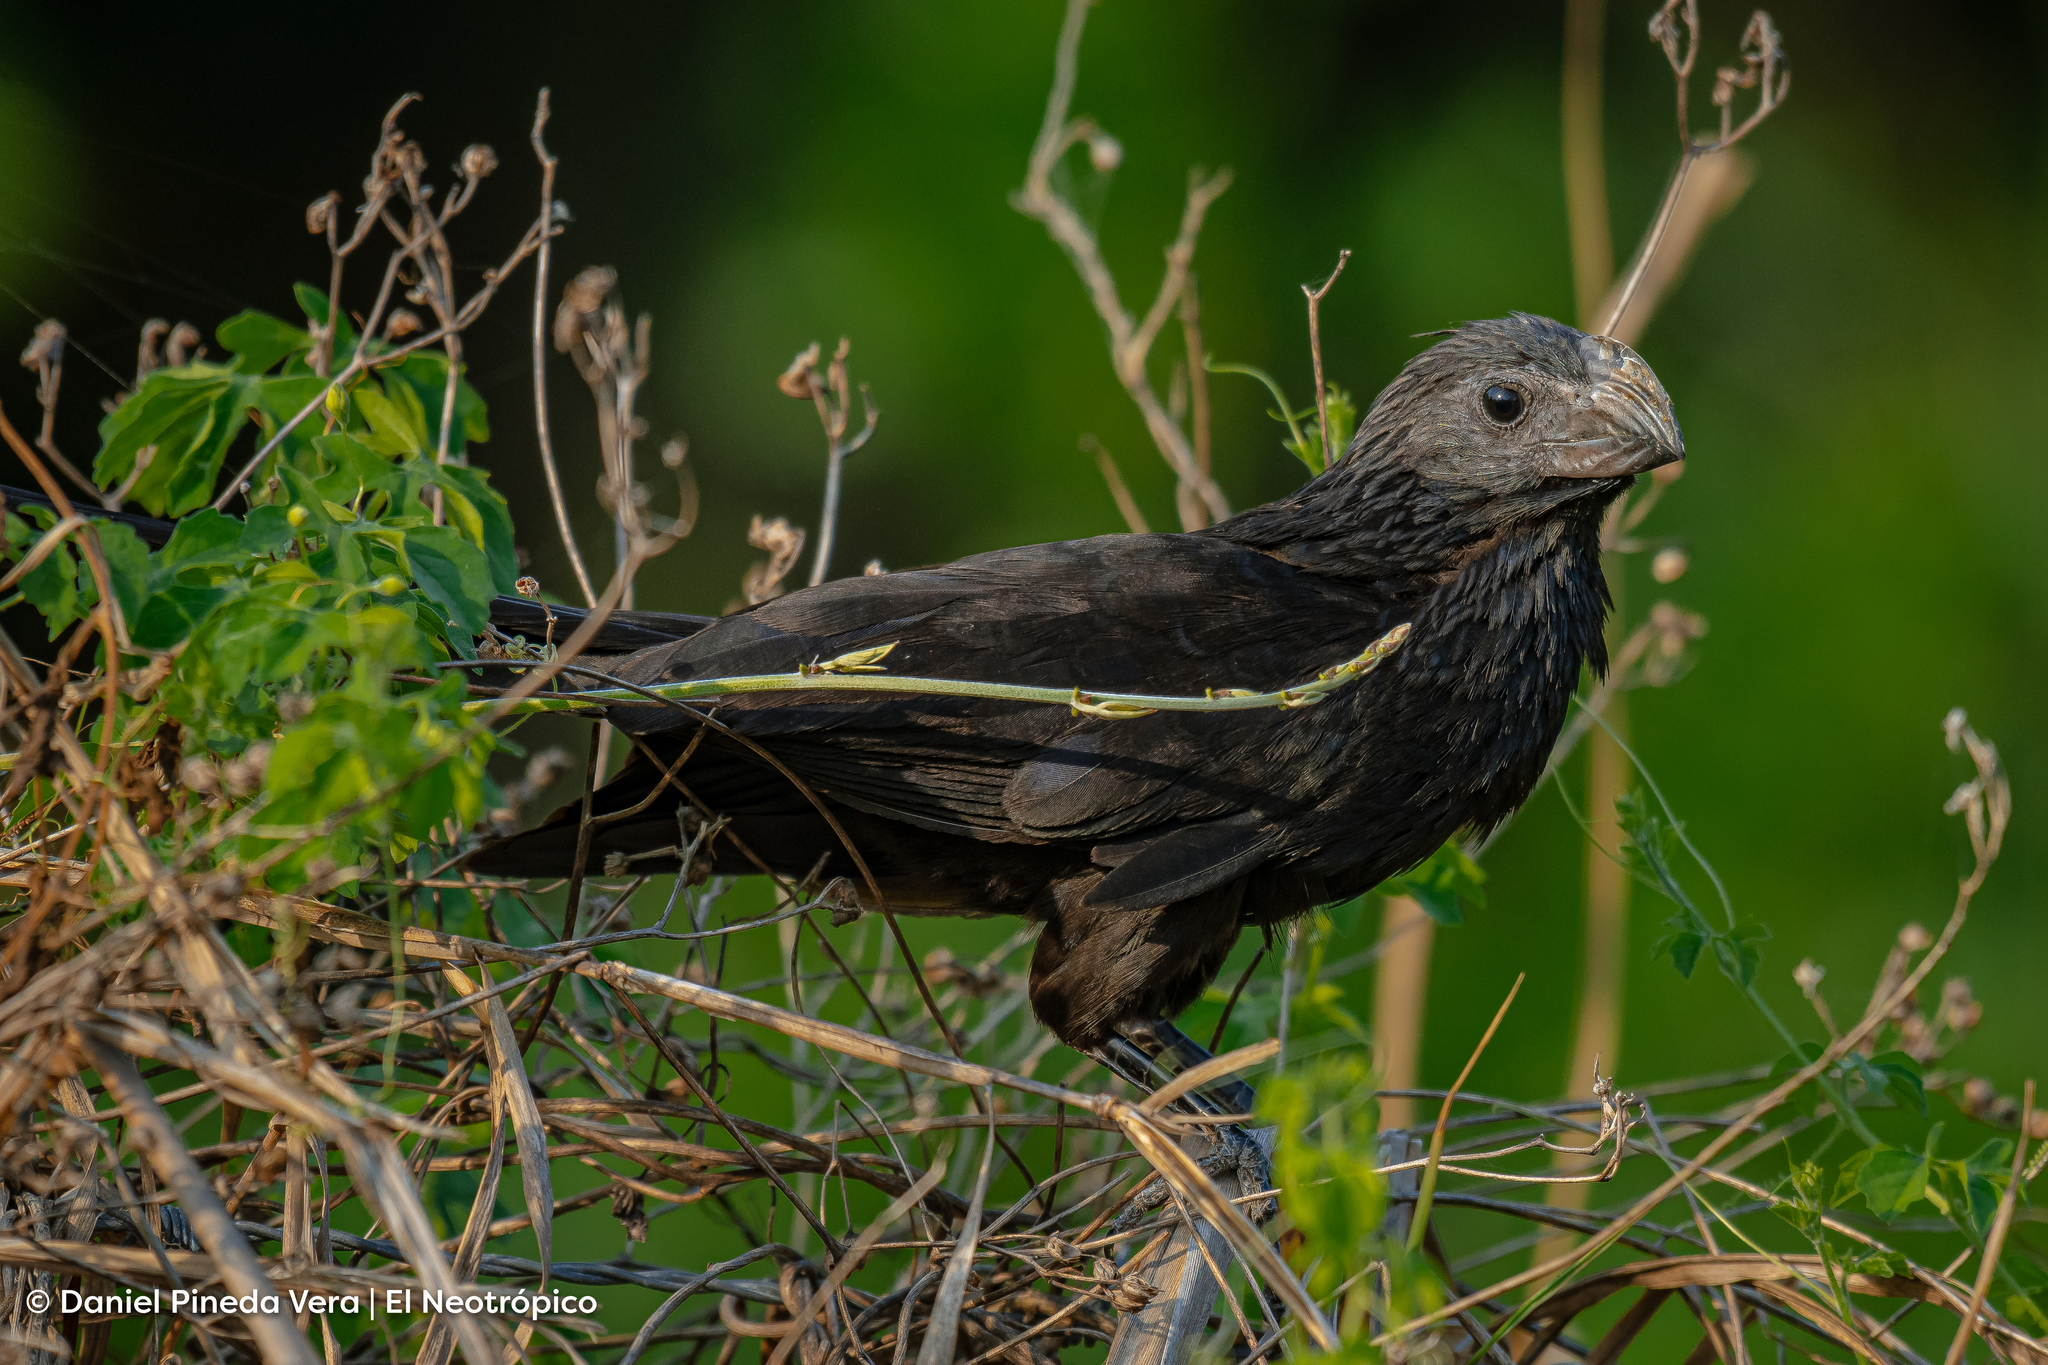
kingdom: Animalia
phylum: Chordata
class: Aves
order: Cuculiformes
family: Cuculidae
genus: Crotophaga
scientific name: Crotophaga sulcirostris
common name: Groove-billed ani
